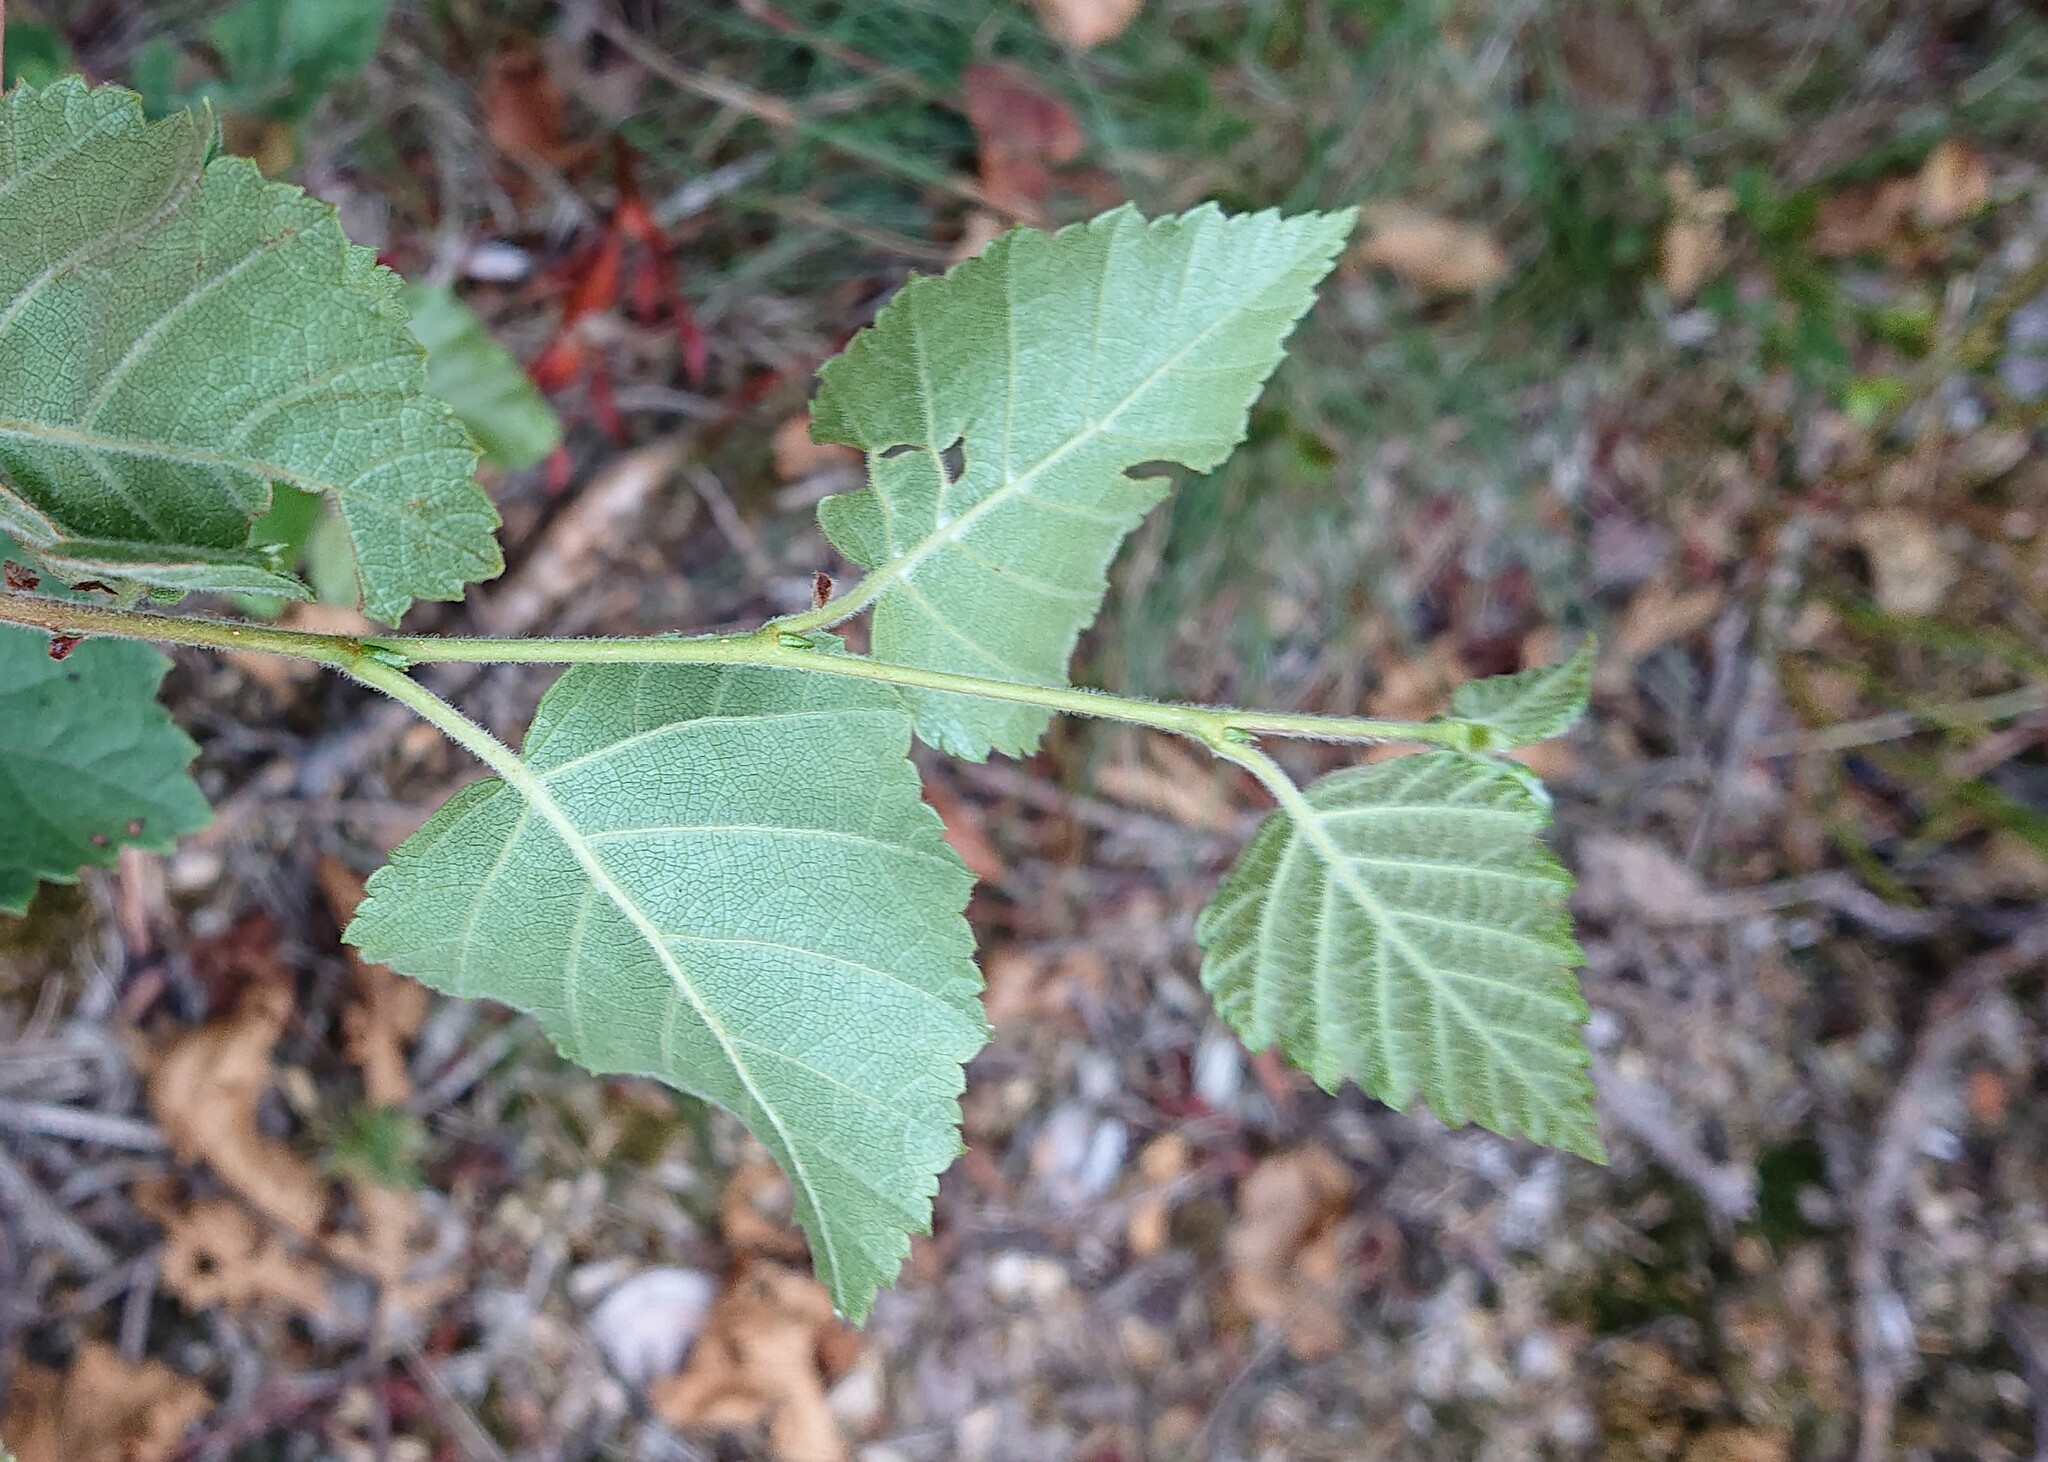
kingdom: Plantae
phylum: Tracheophyta
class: Magnoliopsida
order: Fagales
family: Betulaceae
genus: Betula
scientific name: Betula pubescens
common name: Downy birch
